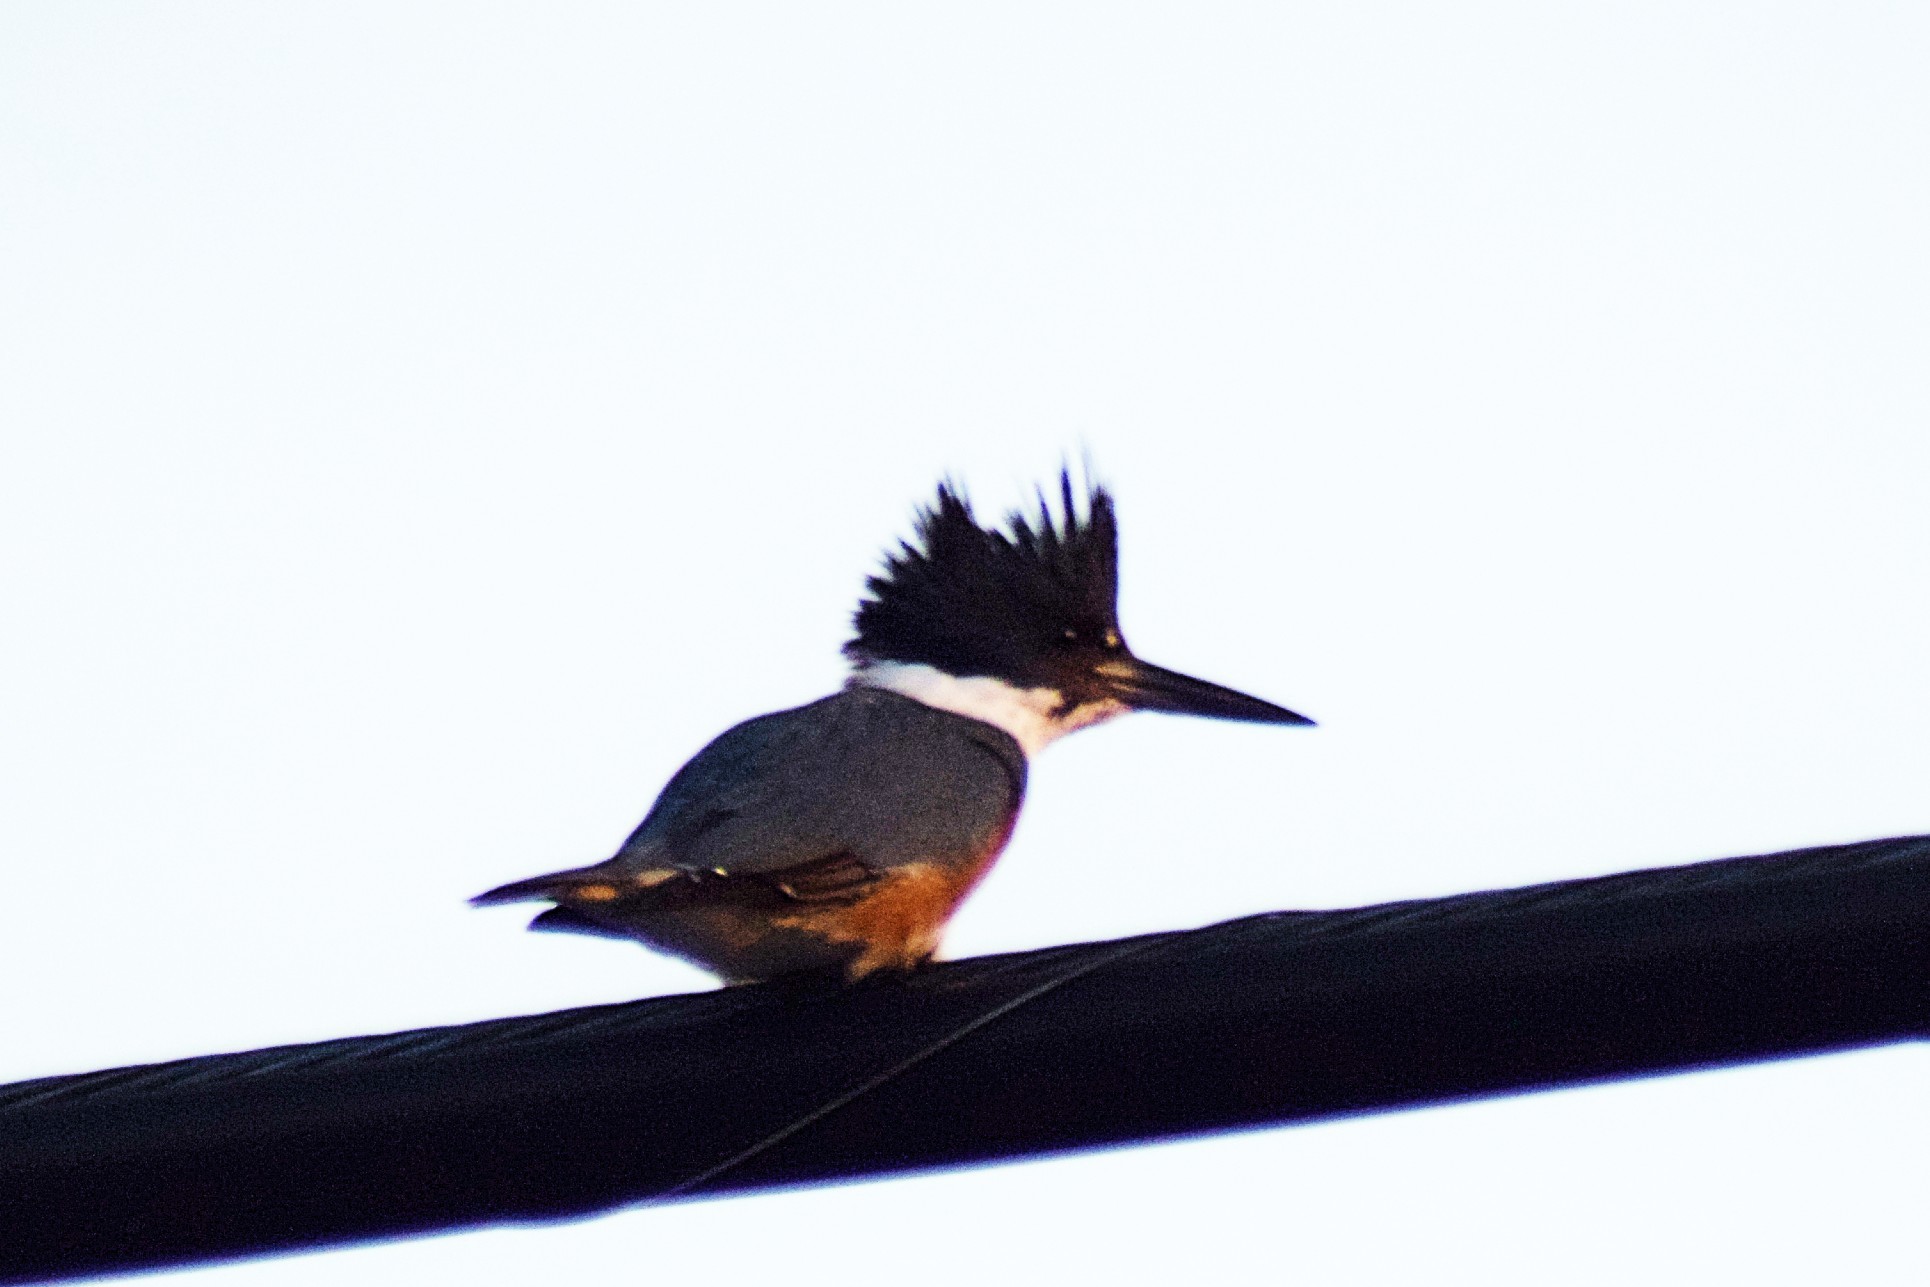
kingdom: Animalia
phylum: Chordata
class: Aves
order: Coraciiformes
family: Alcedinidae
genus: Megaceryle
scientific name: Megaceryle alcyon
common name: Belted kingfisher
